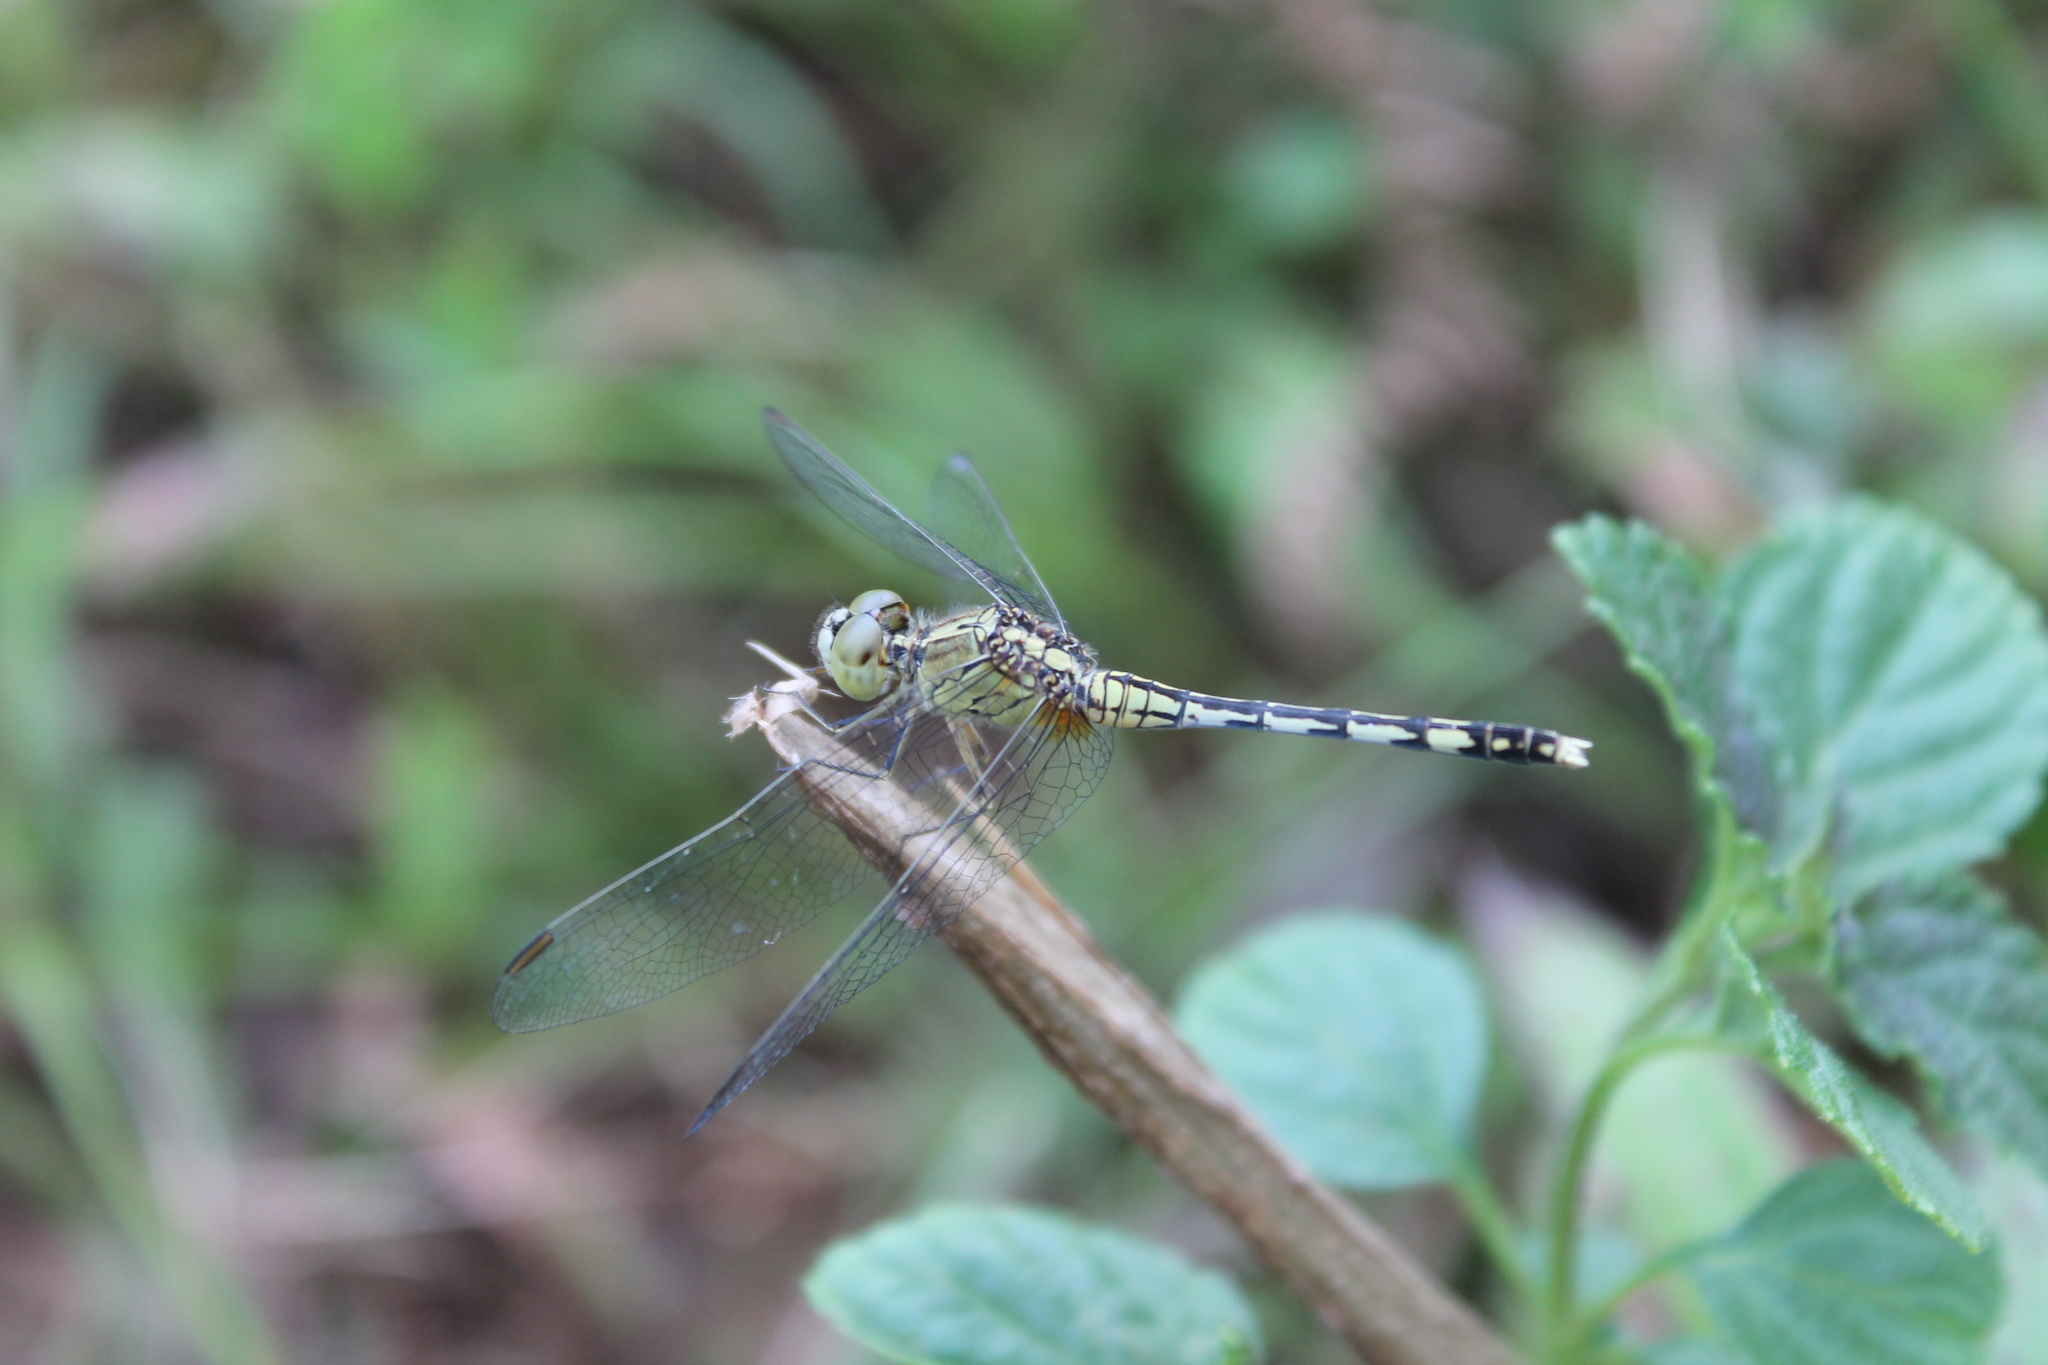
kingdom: Animalia
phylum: Arthropoda
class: Insecta
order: Odonata
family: Libellulidae
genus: Diplacodes
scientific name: Diplacodes trivialis
